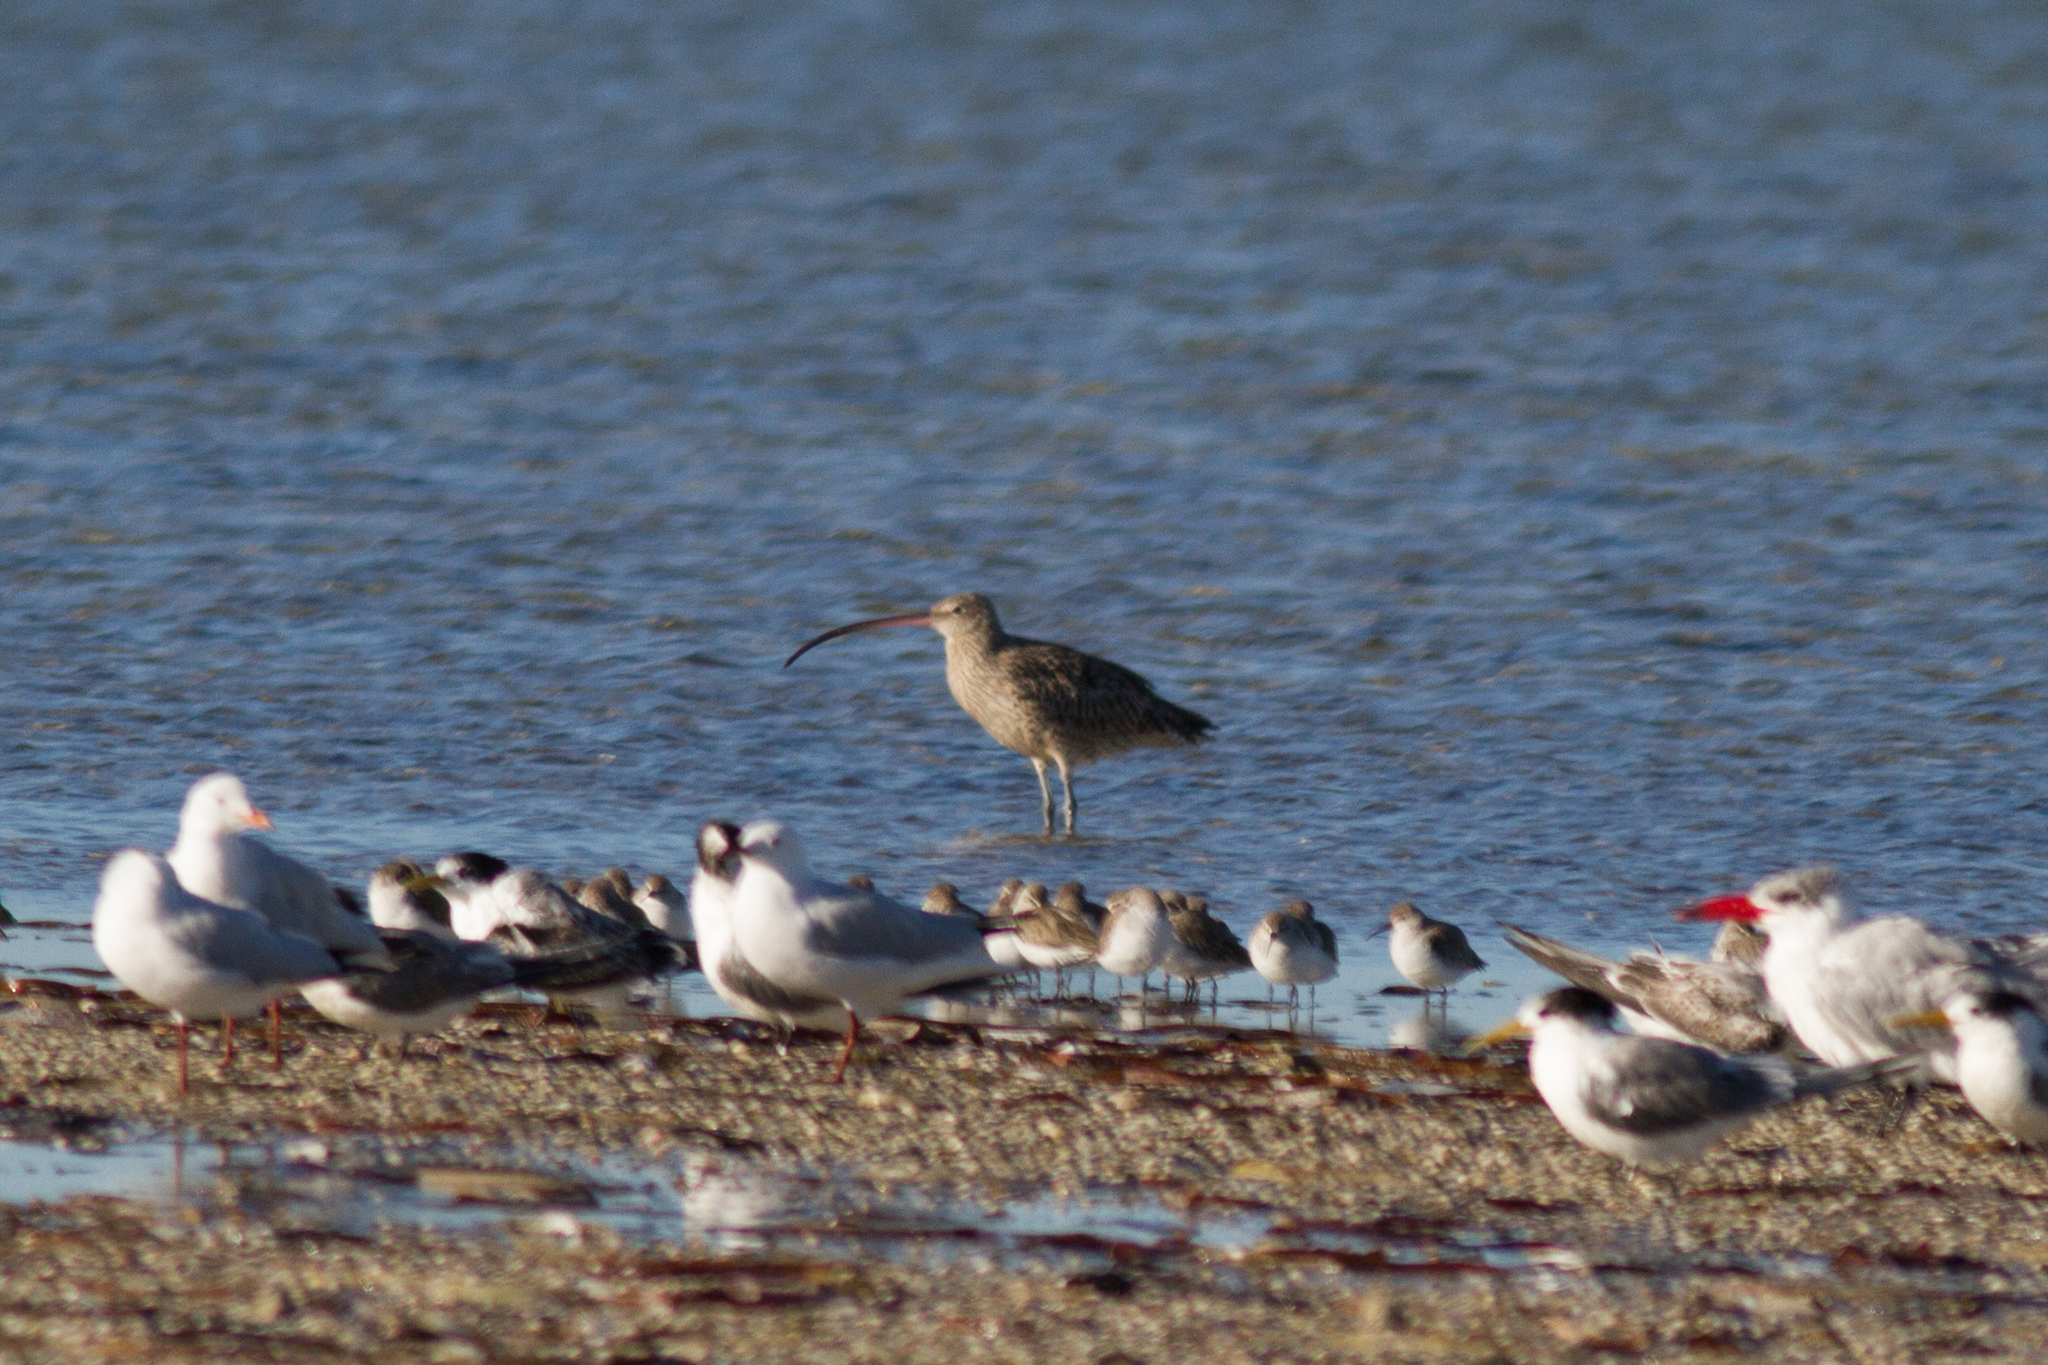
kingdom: Animalia
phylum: Chordata
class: Aves
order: Charadriiformes
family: Scolopacidae
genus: Numenius
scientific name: Numenius madagascariensis
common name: Far eastern curlew
